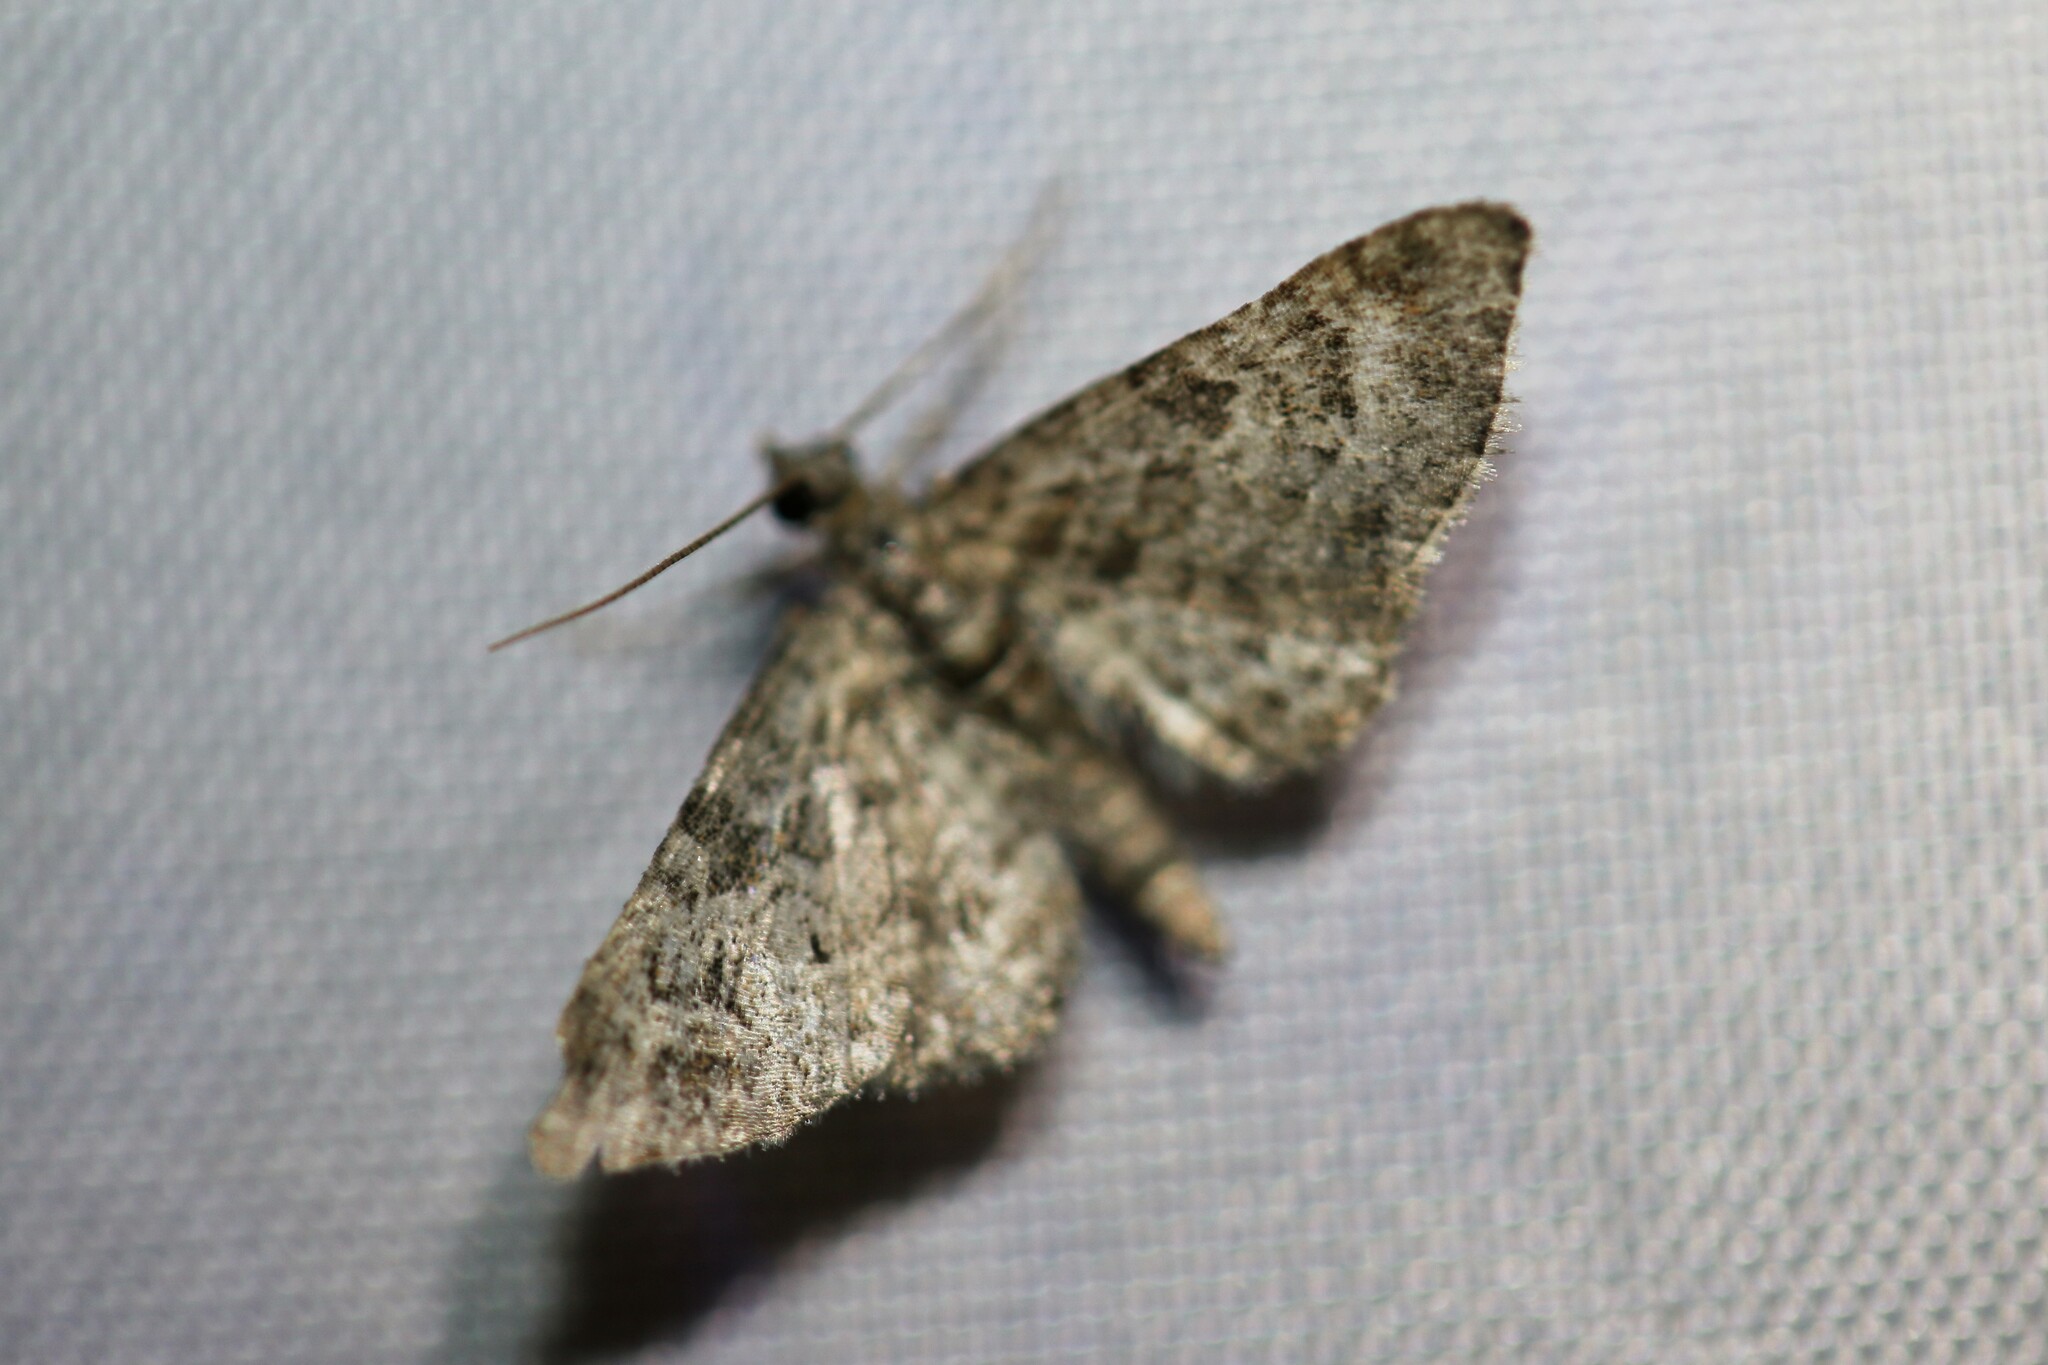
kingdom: Animalia
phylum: Arthropoda
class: Insecta
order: Lepidoptera
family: Geometridae
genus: Gymnoscelis
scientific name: Gymnoscelis rufifasciata
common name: Double-striped pug
